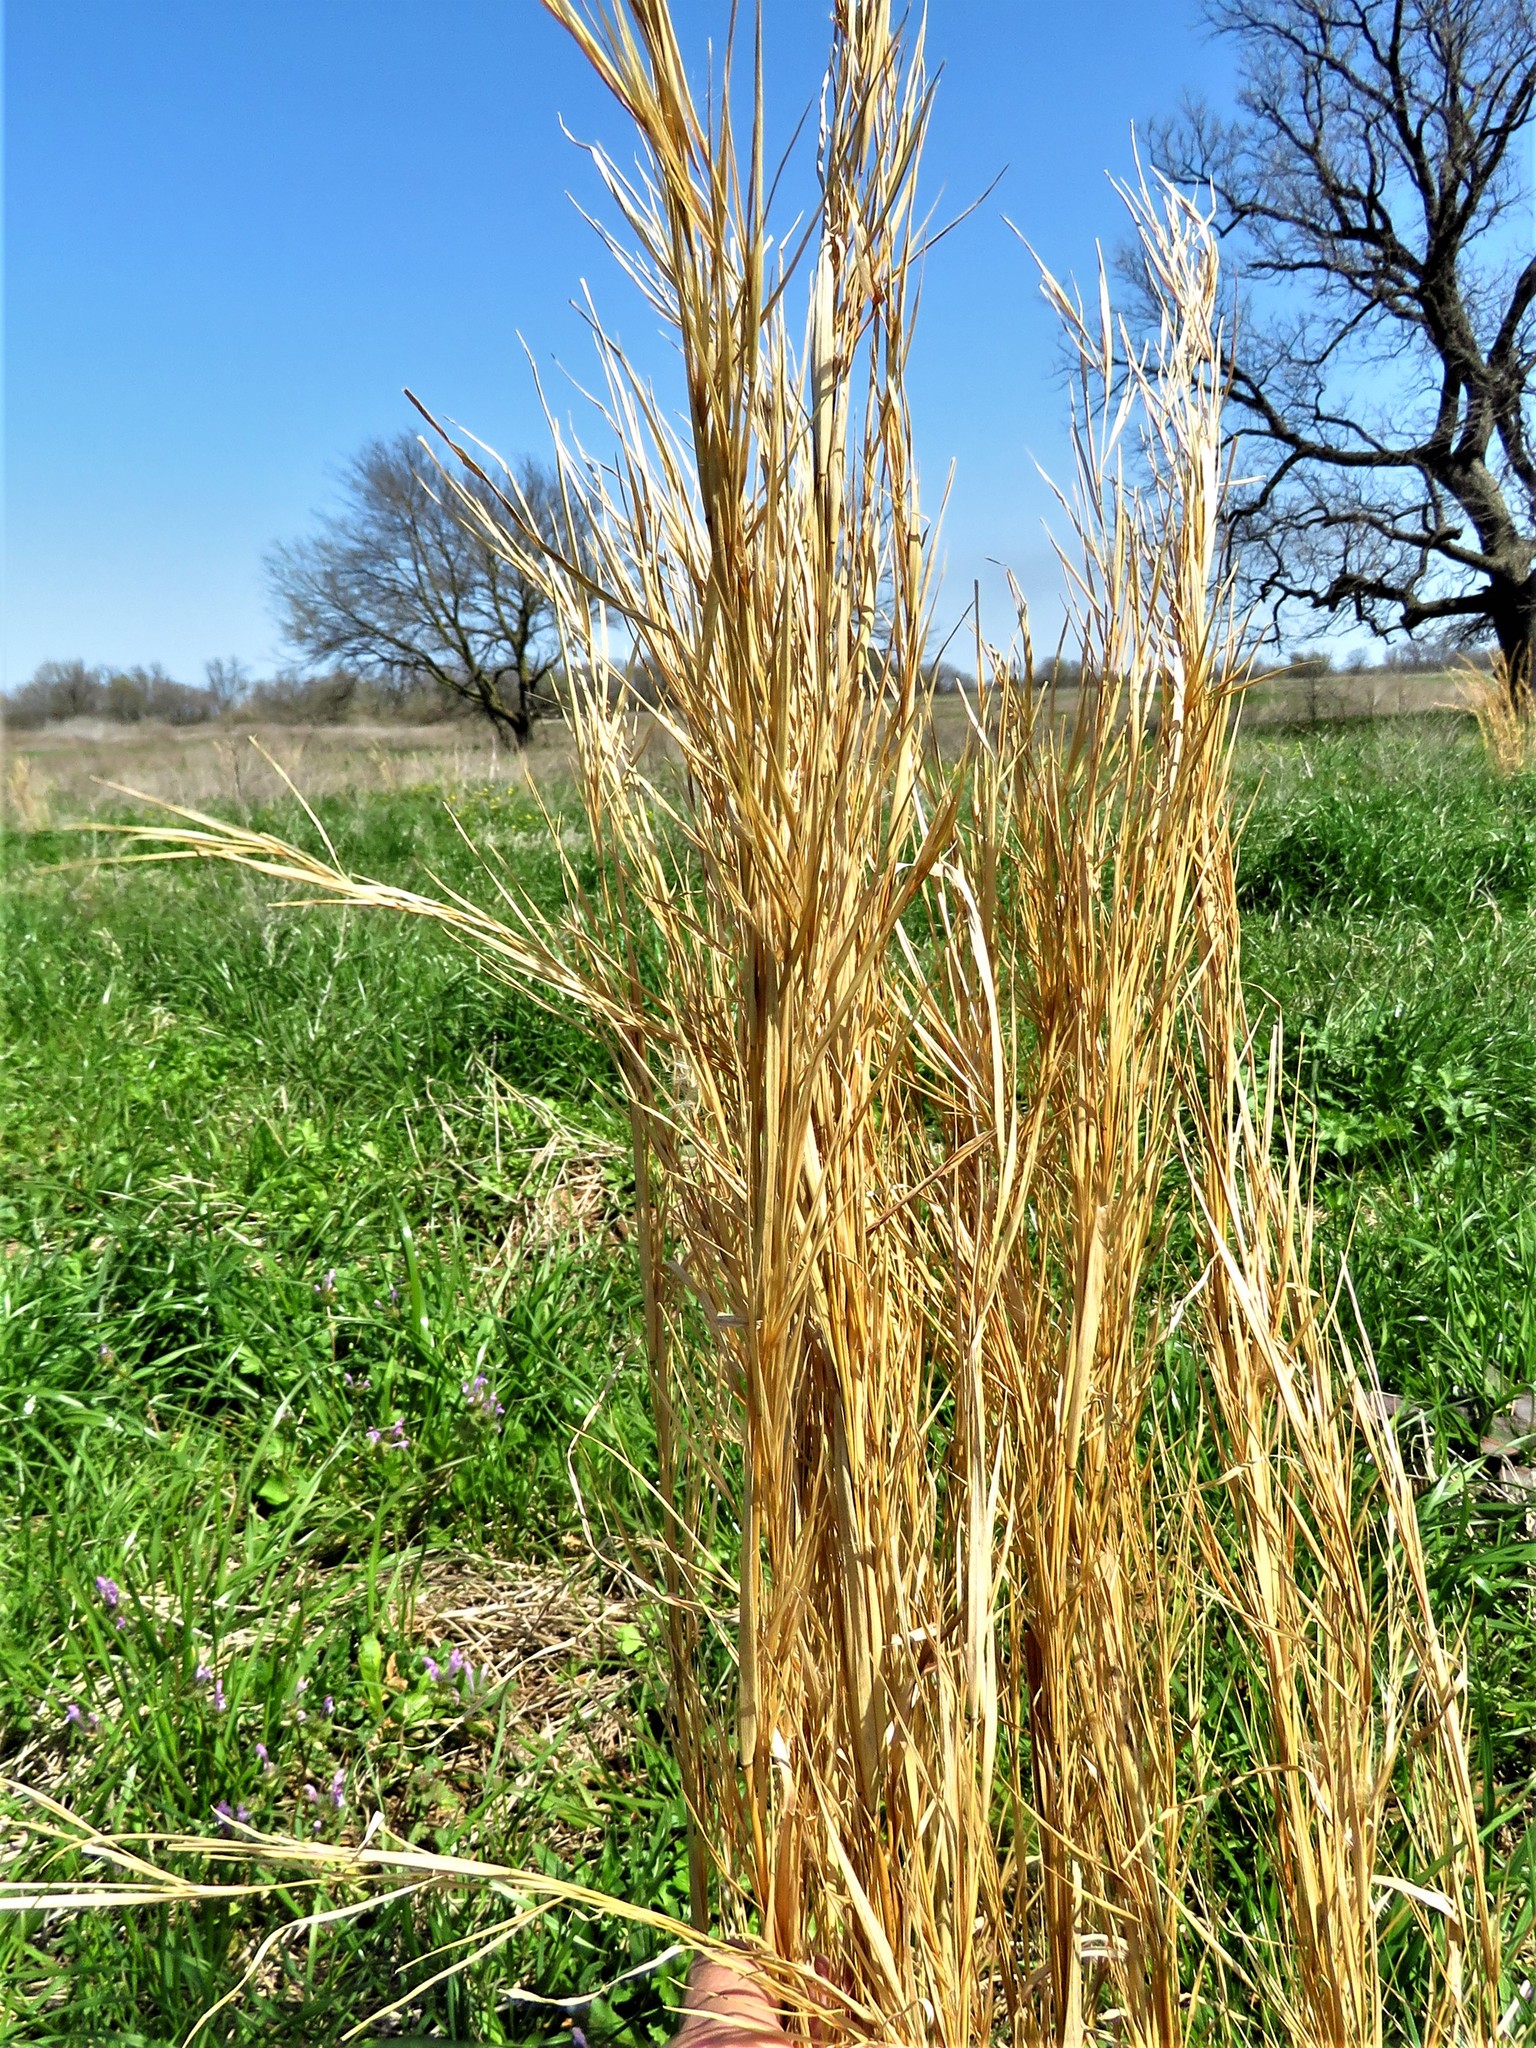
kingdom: Plantae
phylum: Tracheophyta
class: Liliopsida
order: Poales
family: Poaceae
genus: Andropogon
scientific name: Andropogon virginicus
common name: Broomsedge bluestem
